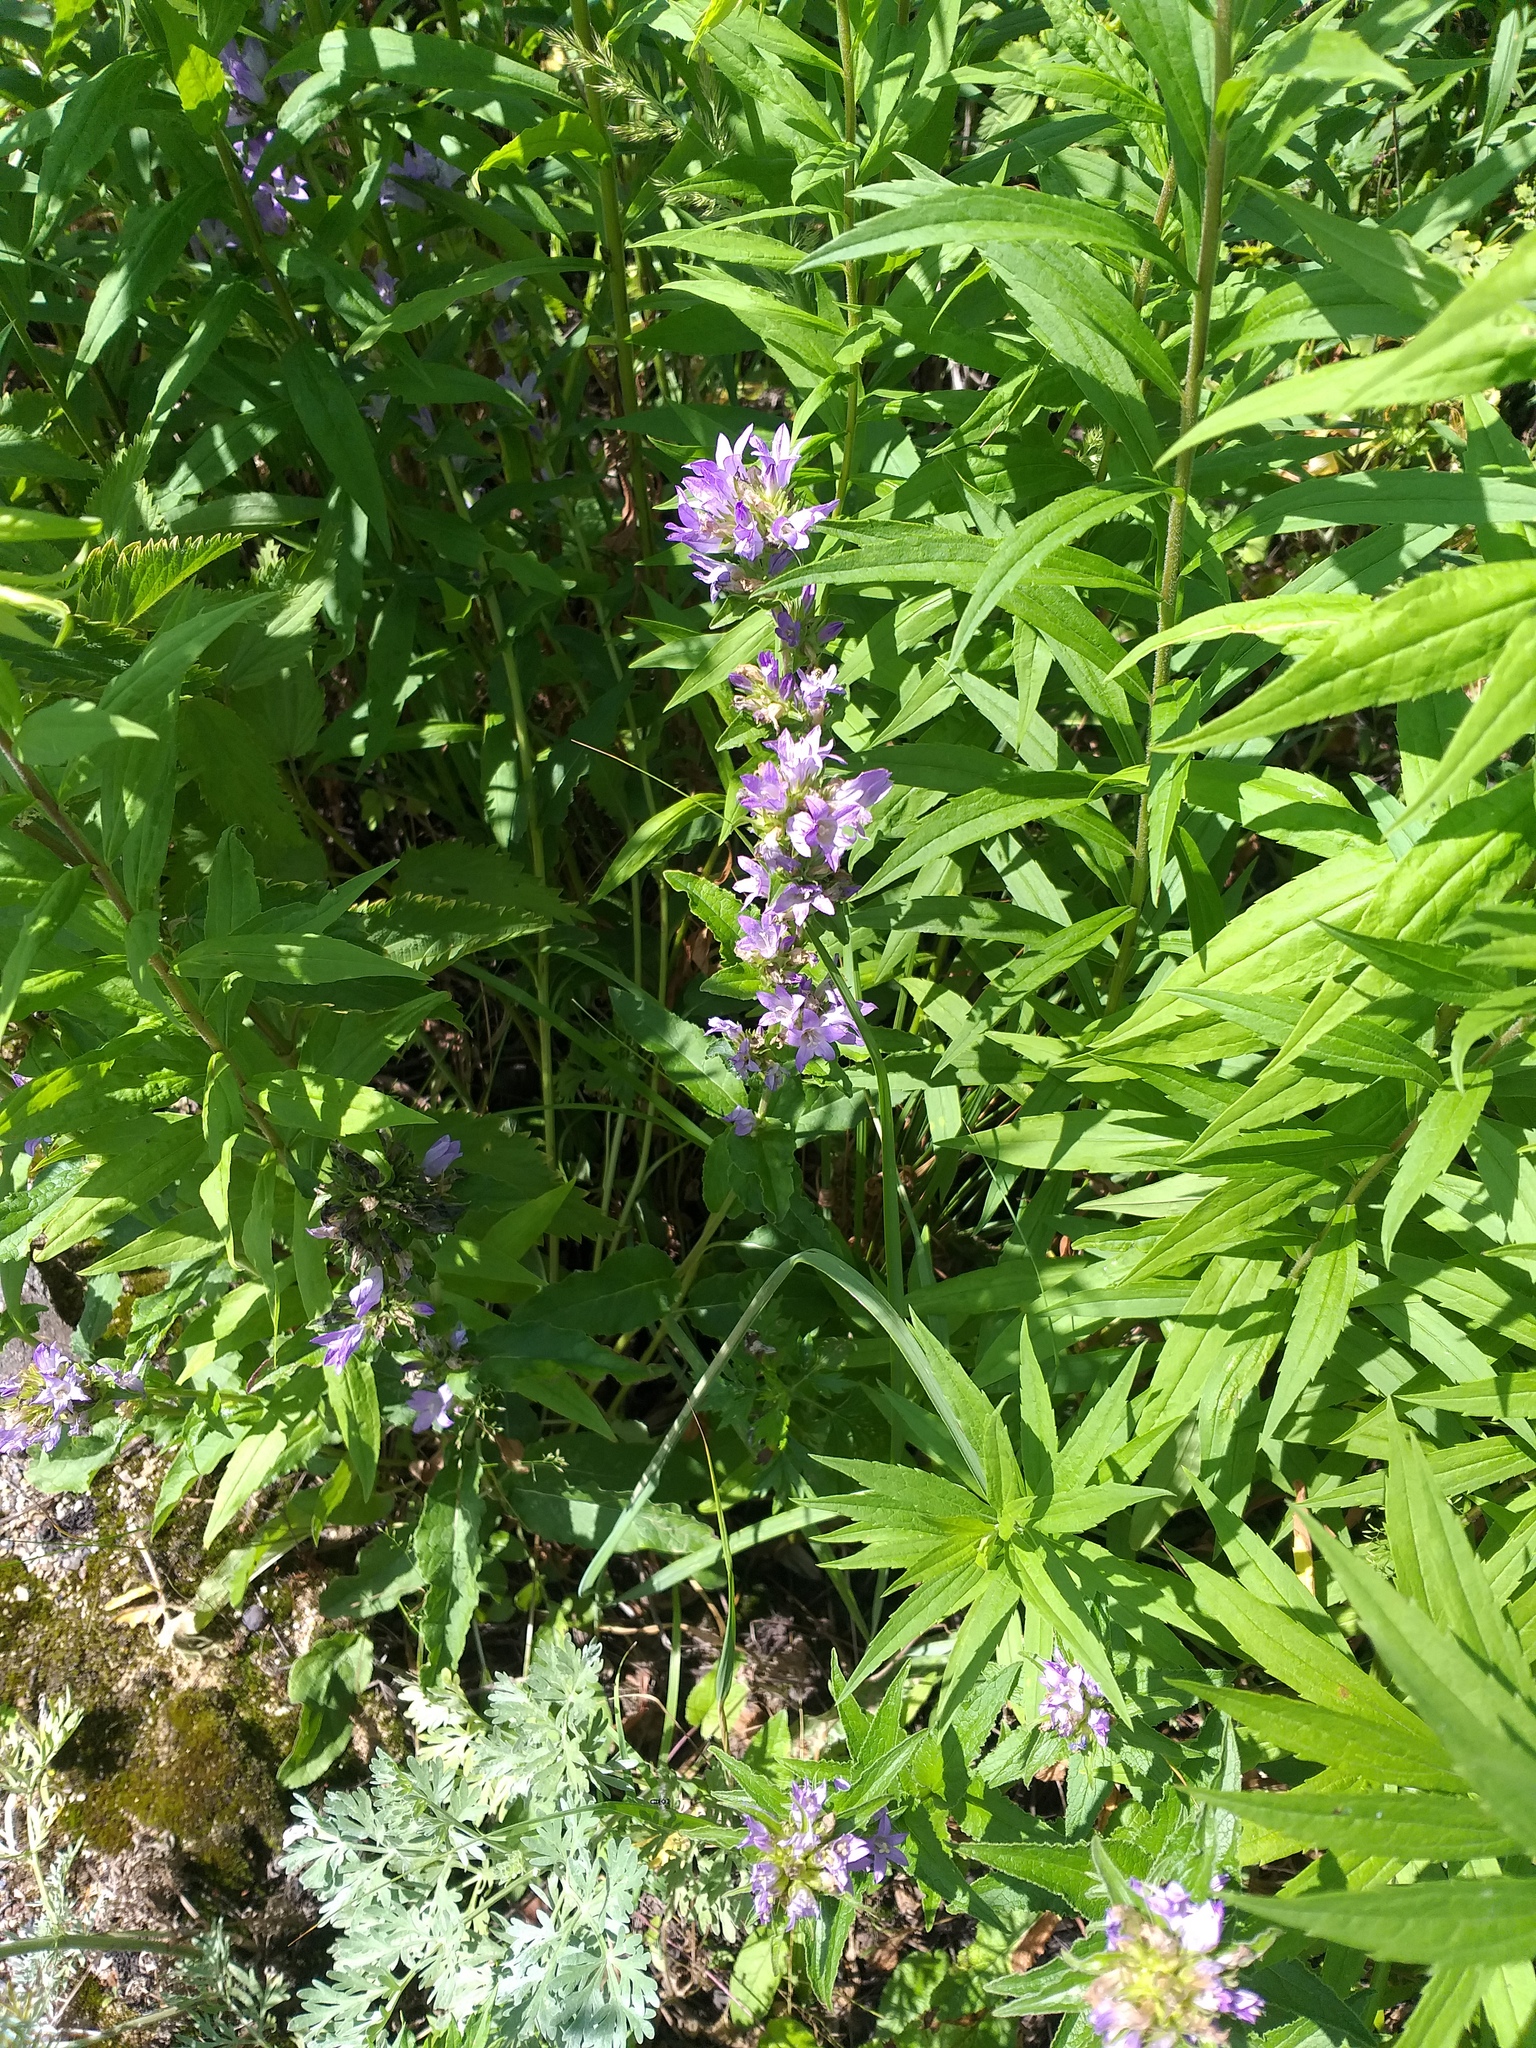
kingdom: Plantae
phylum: Tracheophyta
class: Magnoliopsida
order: Asterales
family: Campanulaceae
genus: Campanula
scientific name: Campanula glomerata
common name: Clustered bellflower
